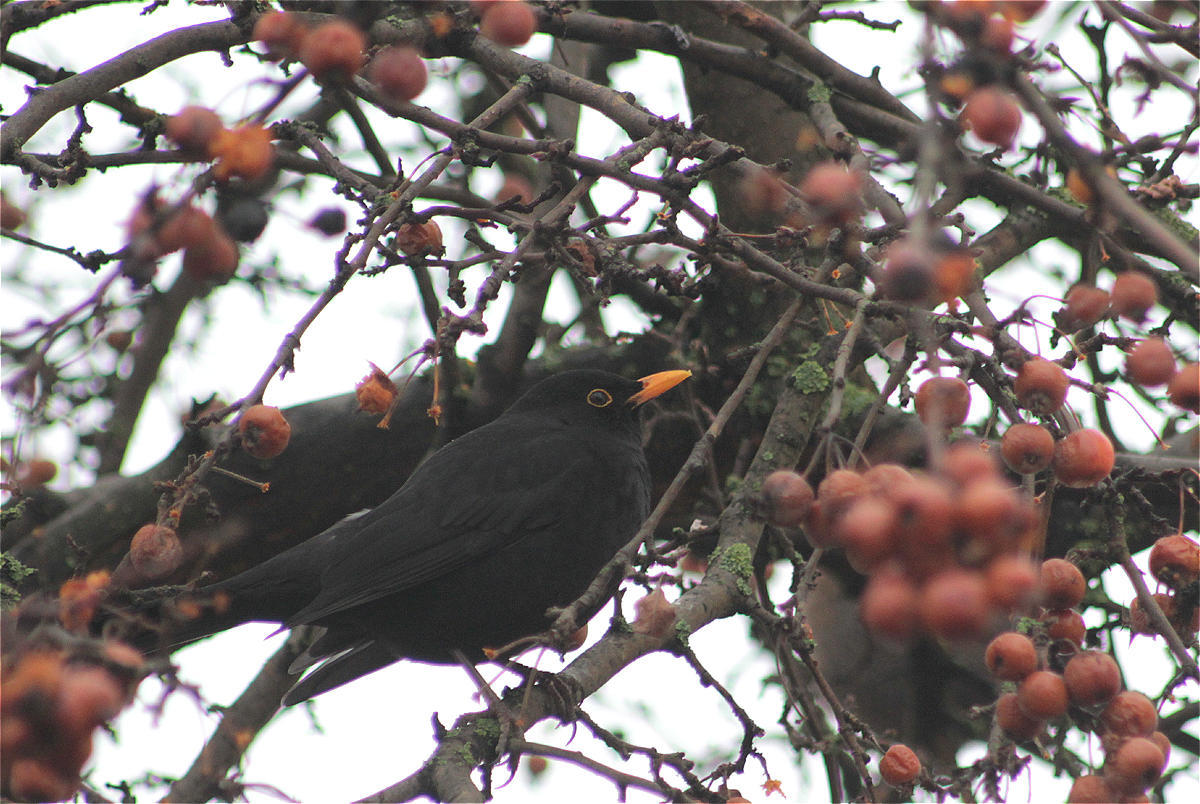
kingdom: Animalia
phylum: Chordata
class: Aves
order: Passeriformes
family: Turdidae
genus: Turdus
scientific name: Turdus merula
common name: Common blackbird
